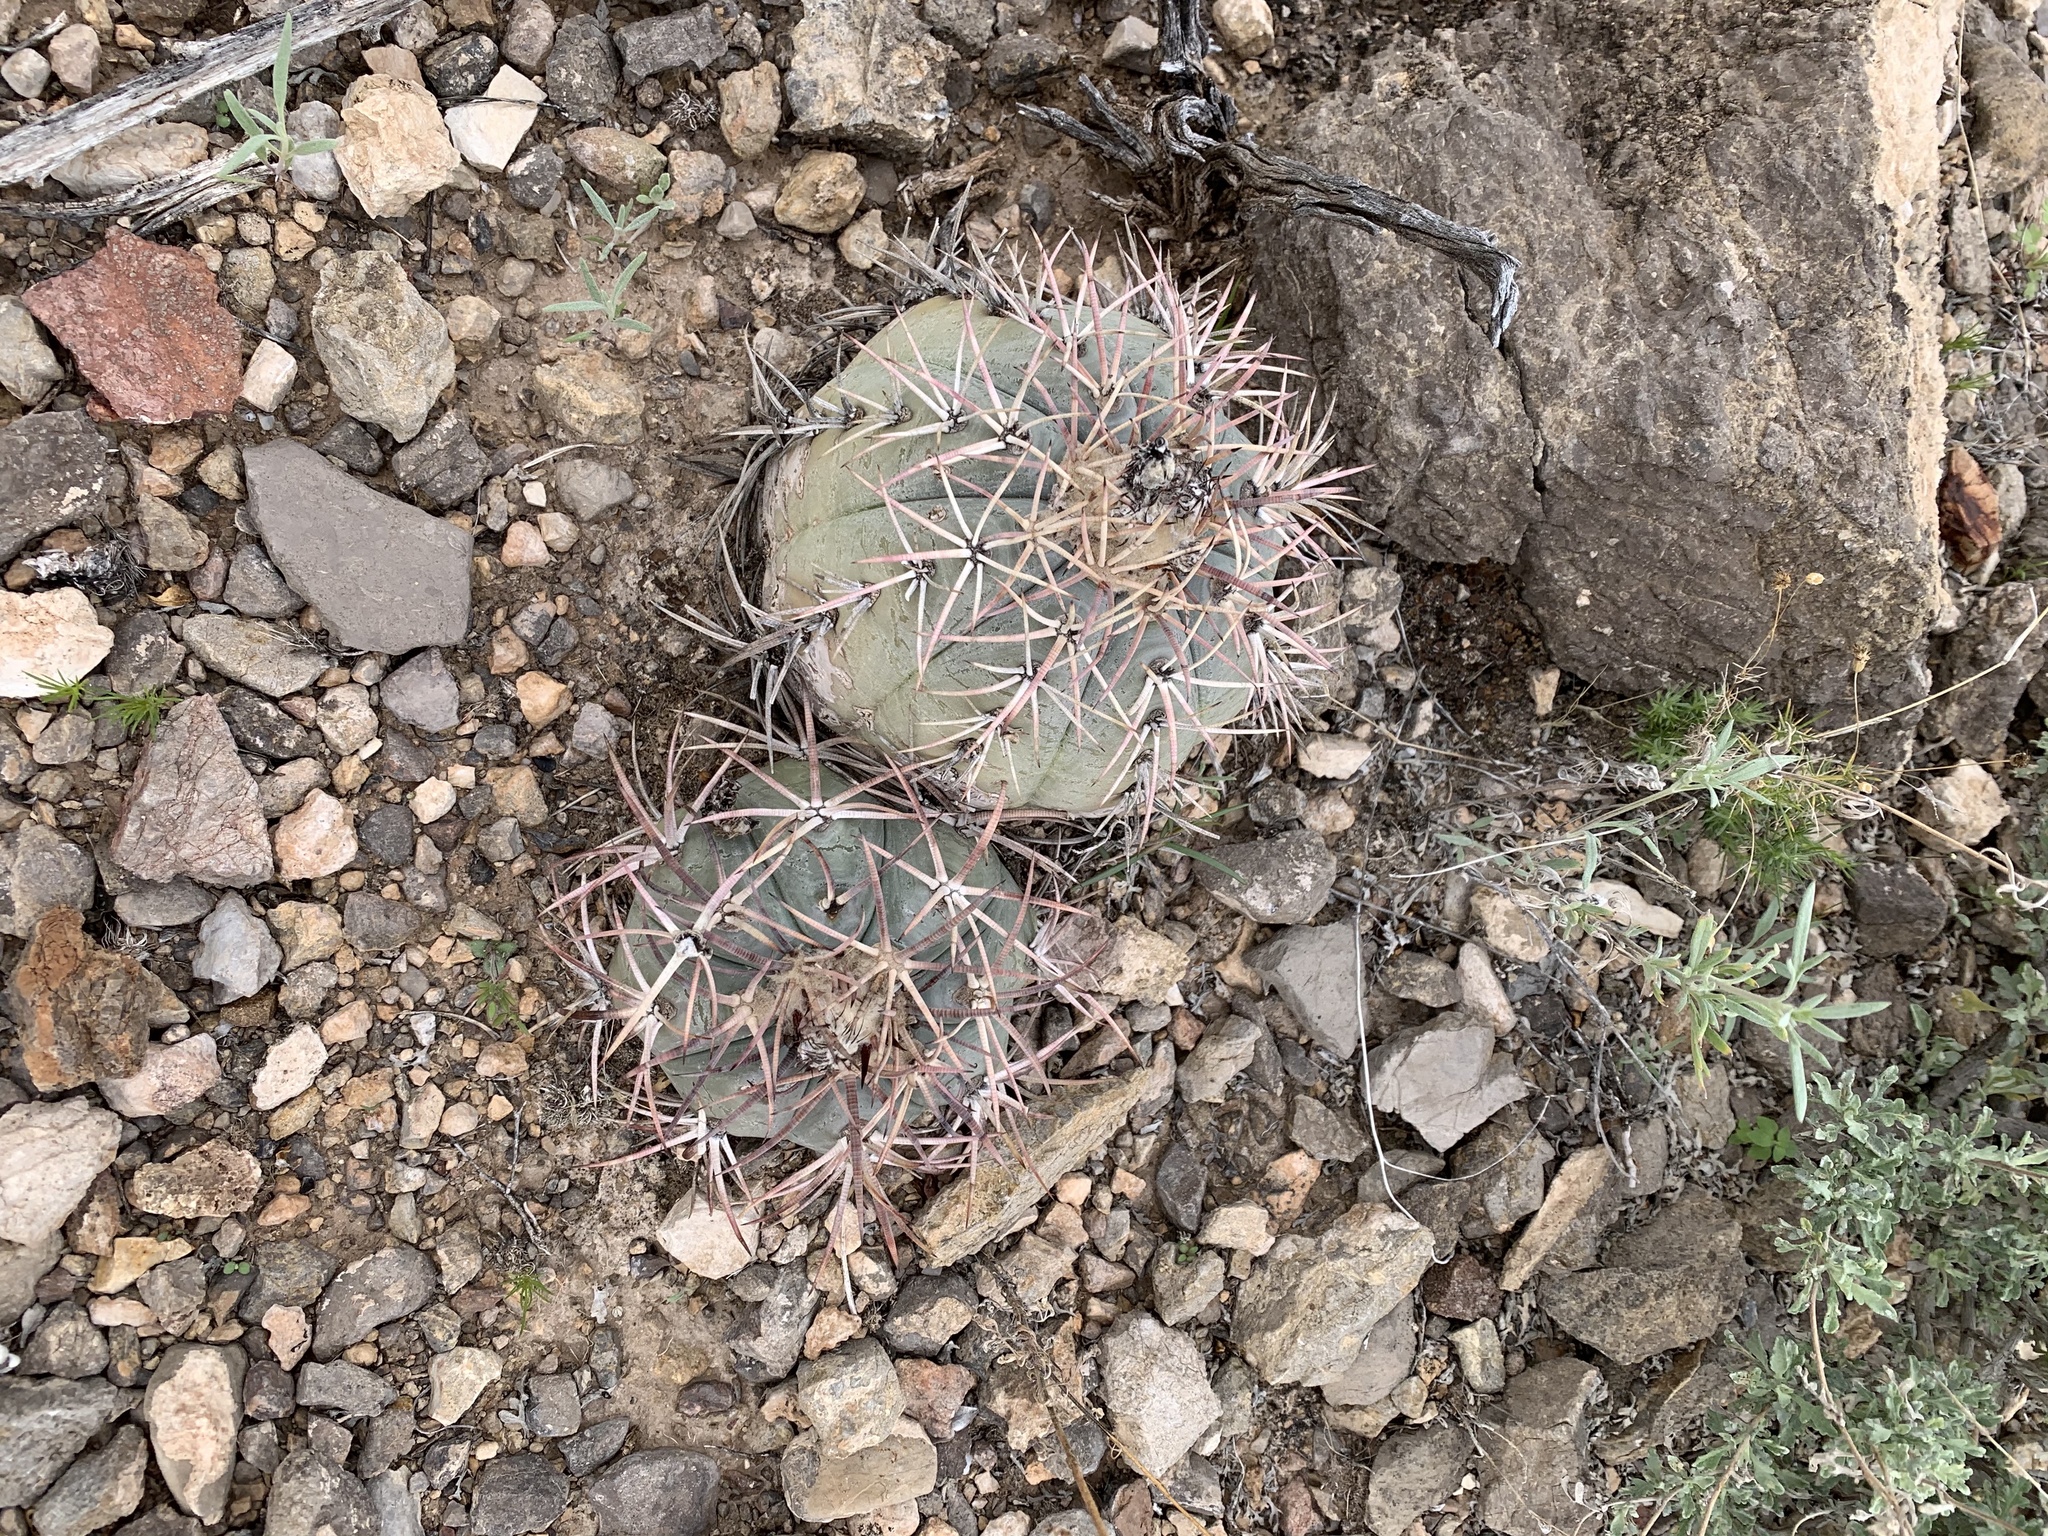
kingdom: Plantae
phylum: Tracheophyta
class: Magnoliopsida
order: Caryophyllales
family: Cactaceae
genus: Echinocactus
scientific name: Echinocactus horizonthalonius
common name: Devilshead
